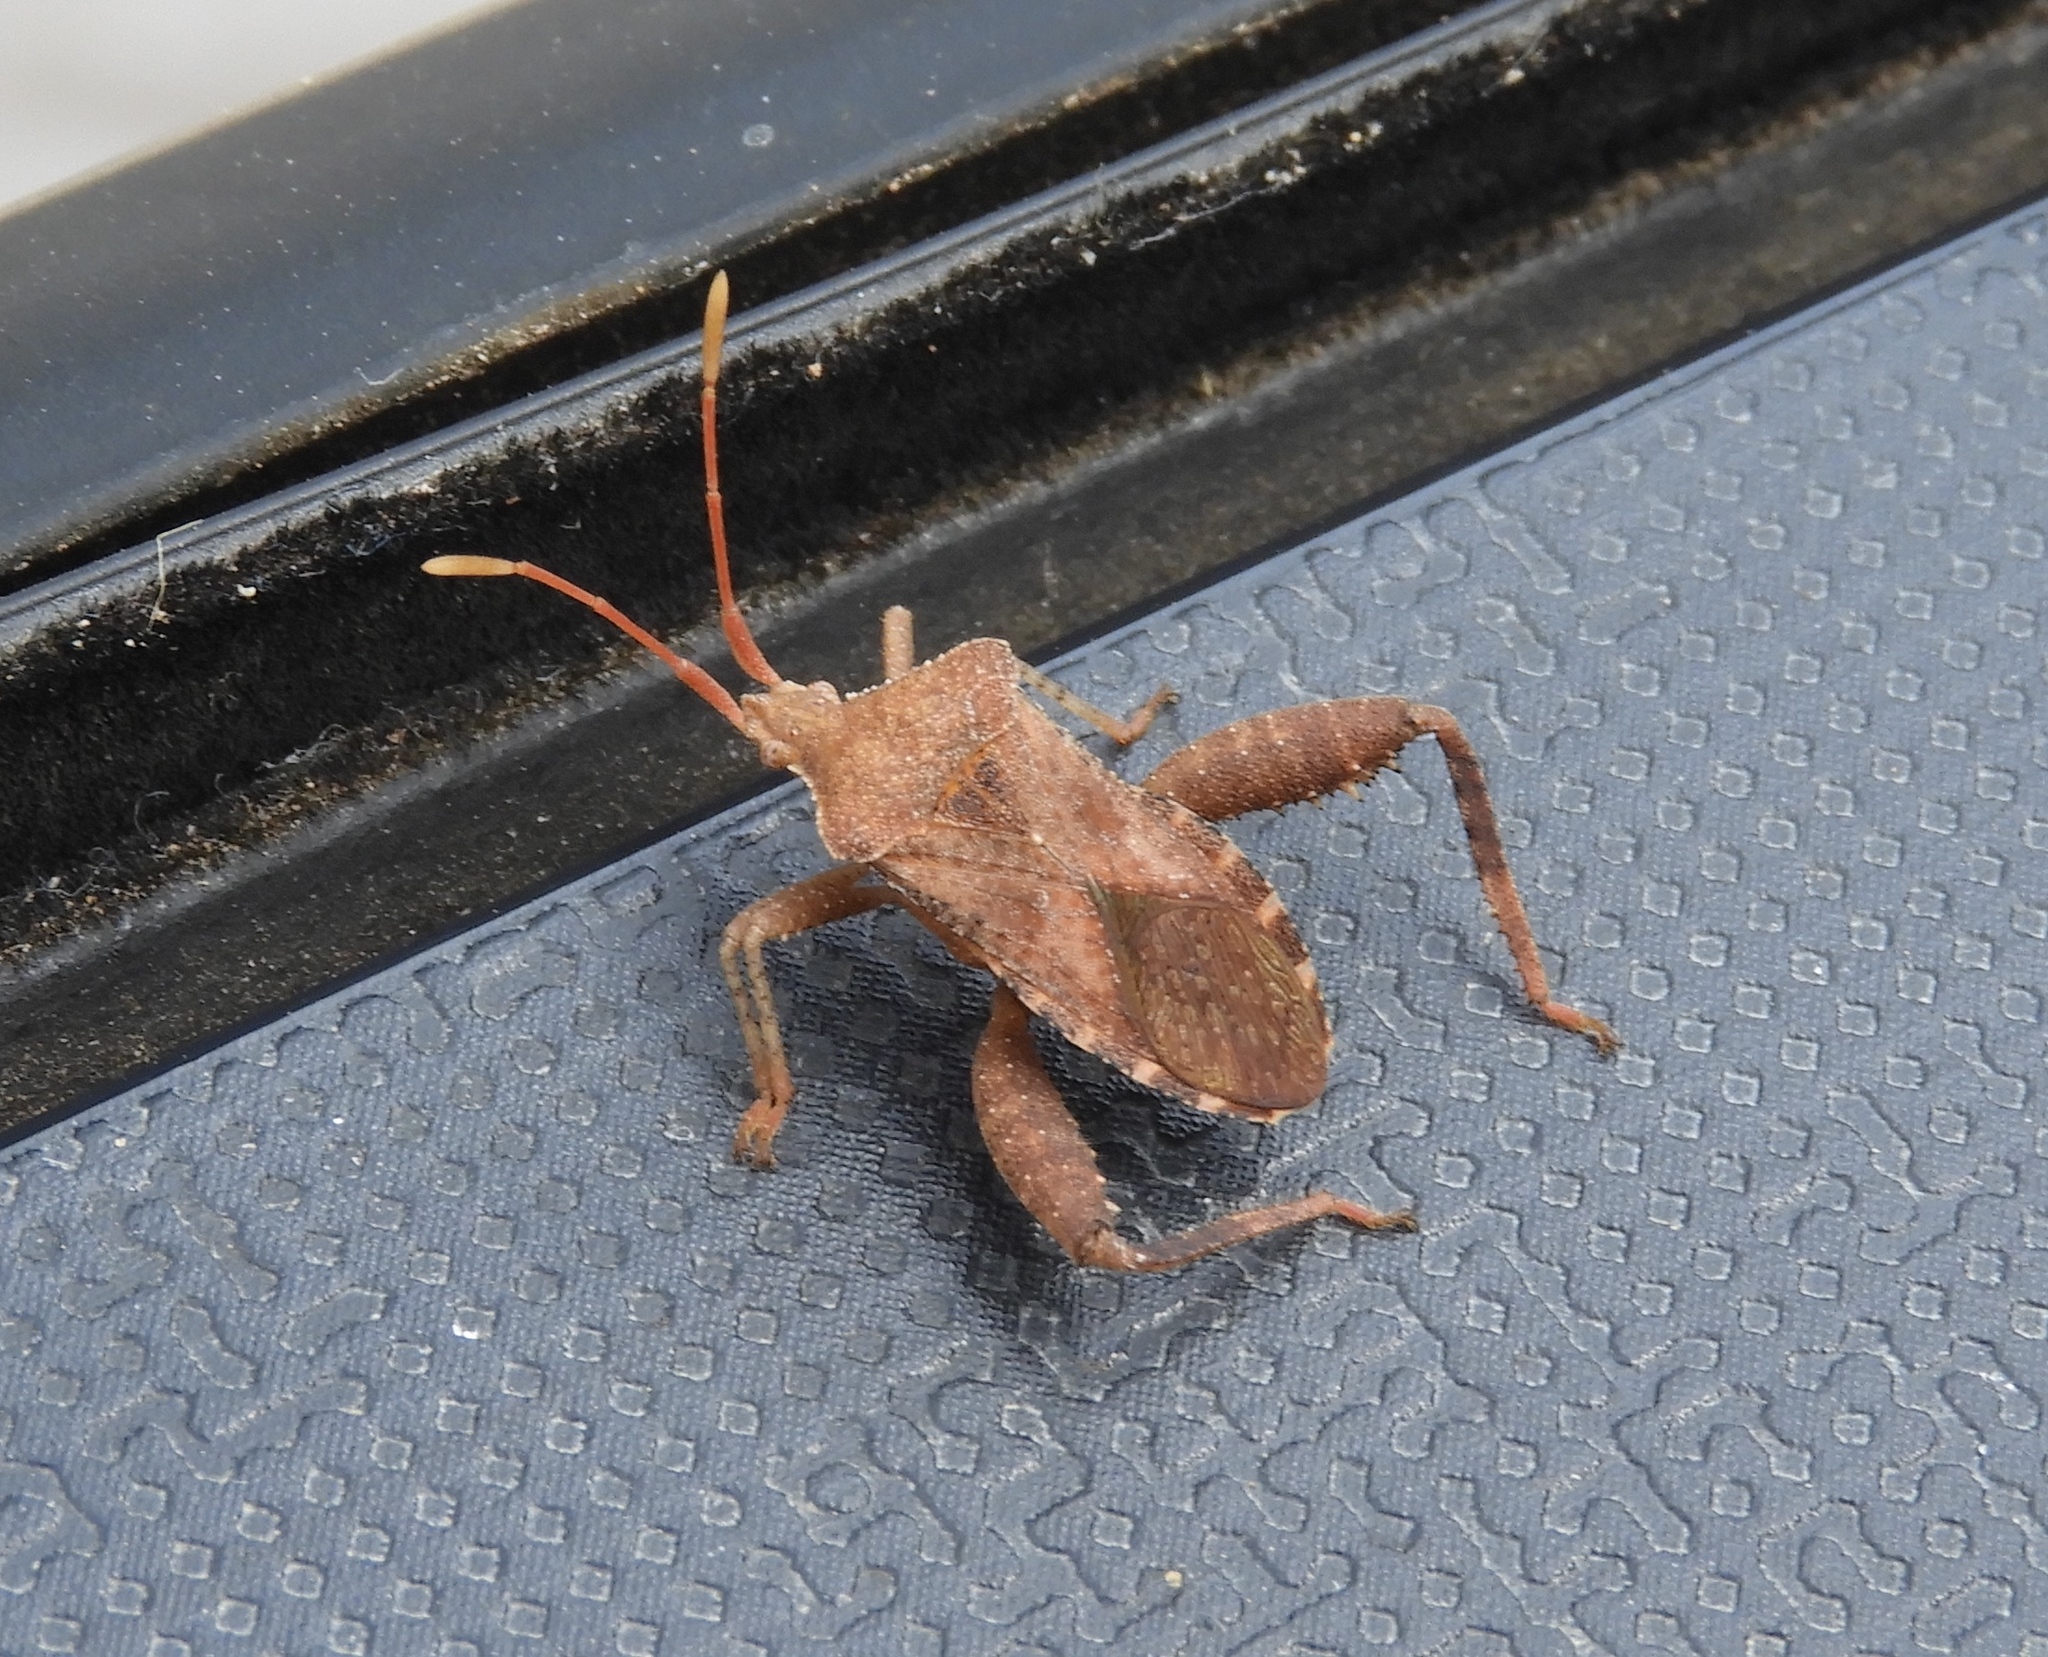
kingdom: Animalia
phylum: Arthropoda
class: Insecta
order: Hemiptera
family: Coreidae
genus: Mamurius
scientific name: Mamurius mopsus
